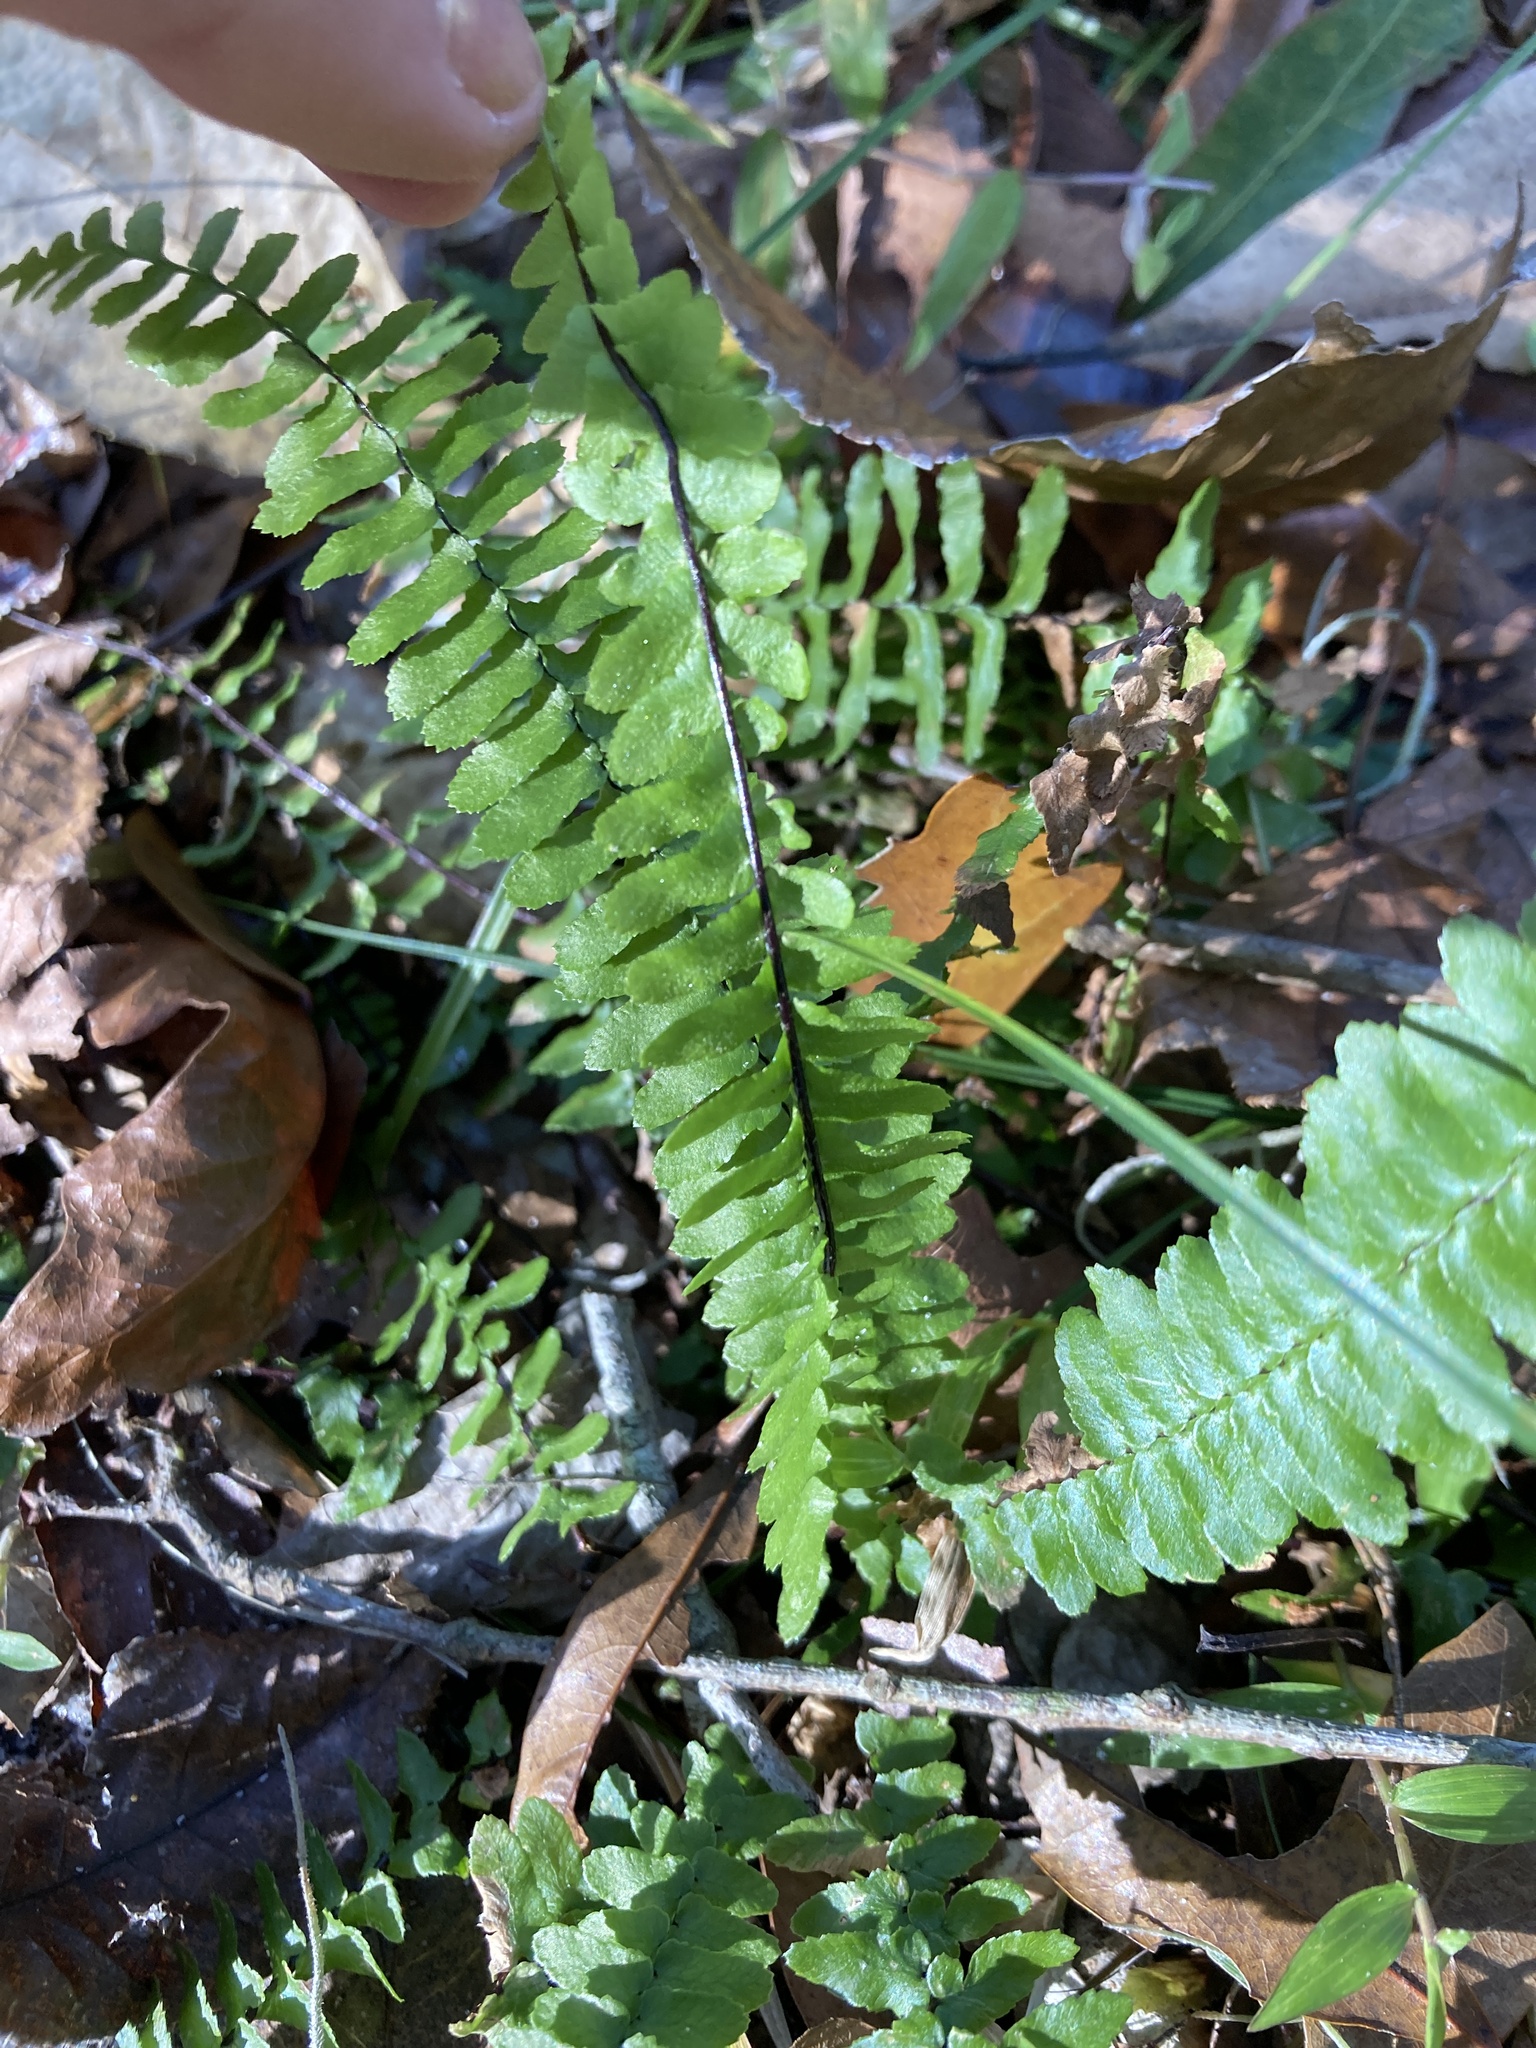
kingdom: Plantae
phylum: Tracheophyta
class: Polypodiopsida
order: Polypodiales
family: Aspleniaceae
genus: Asplenium
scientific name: Asplenium platyneuron
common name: Ebony spleenwort
